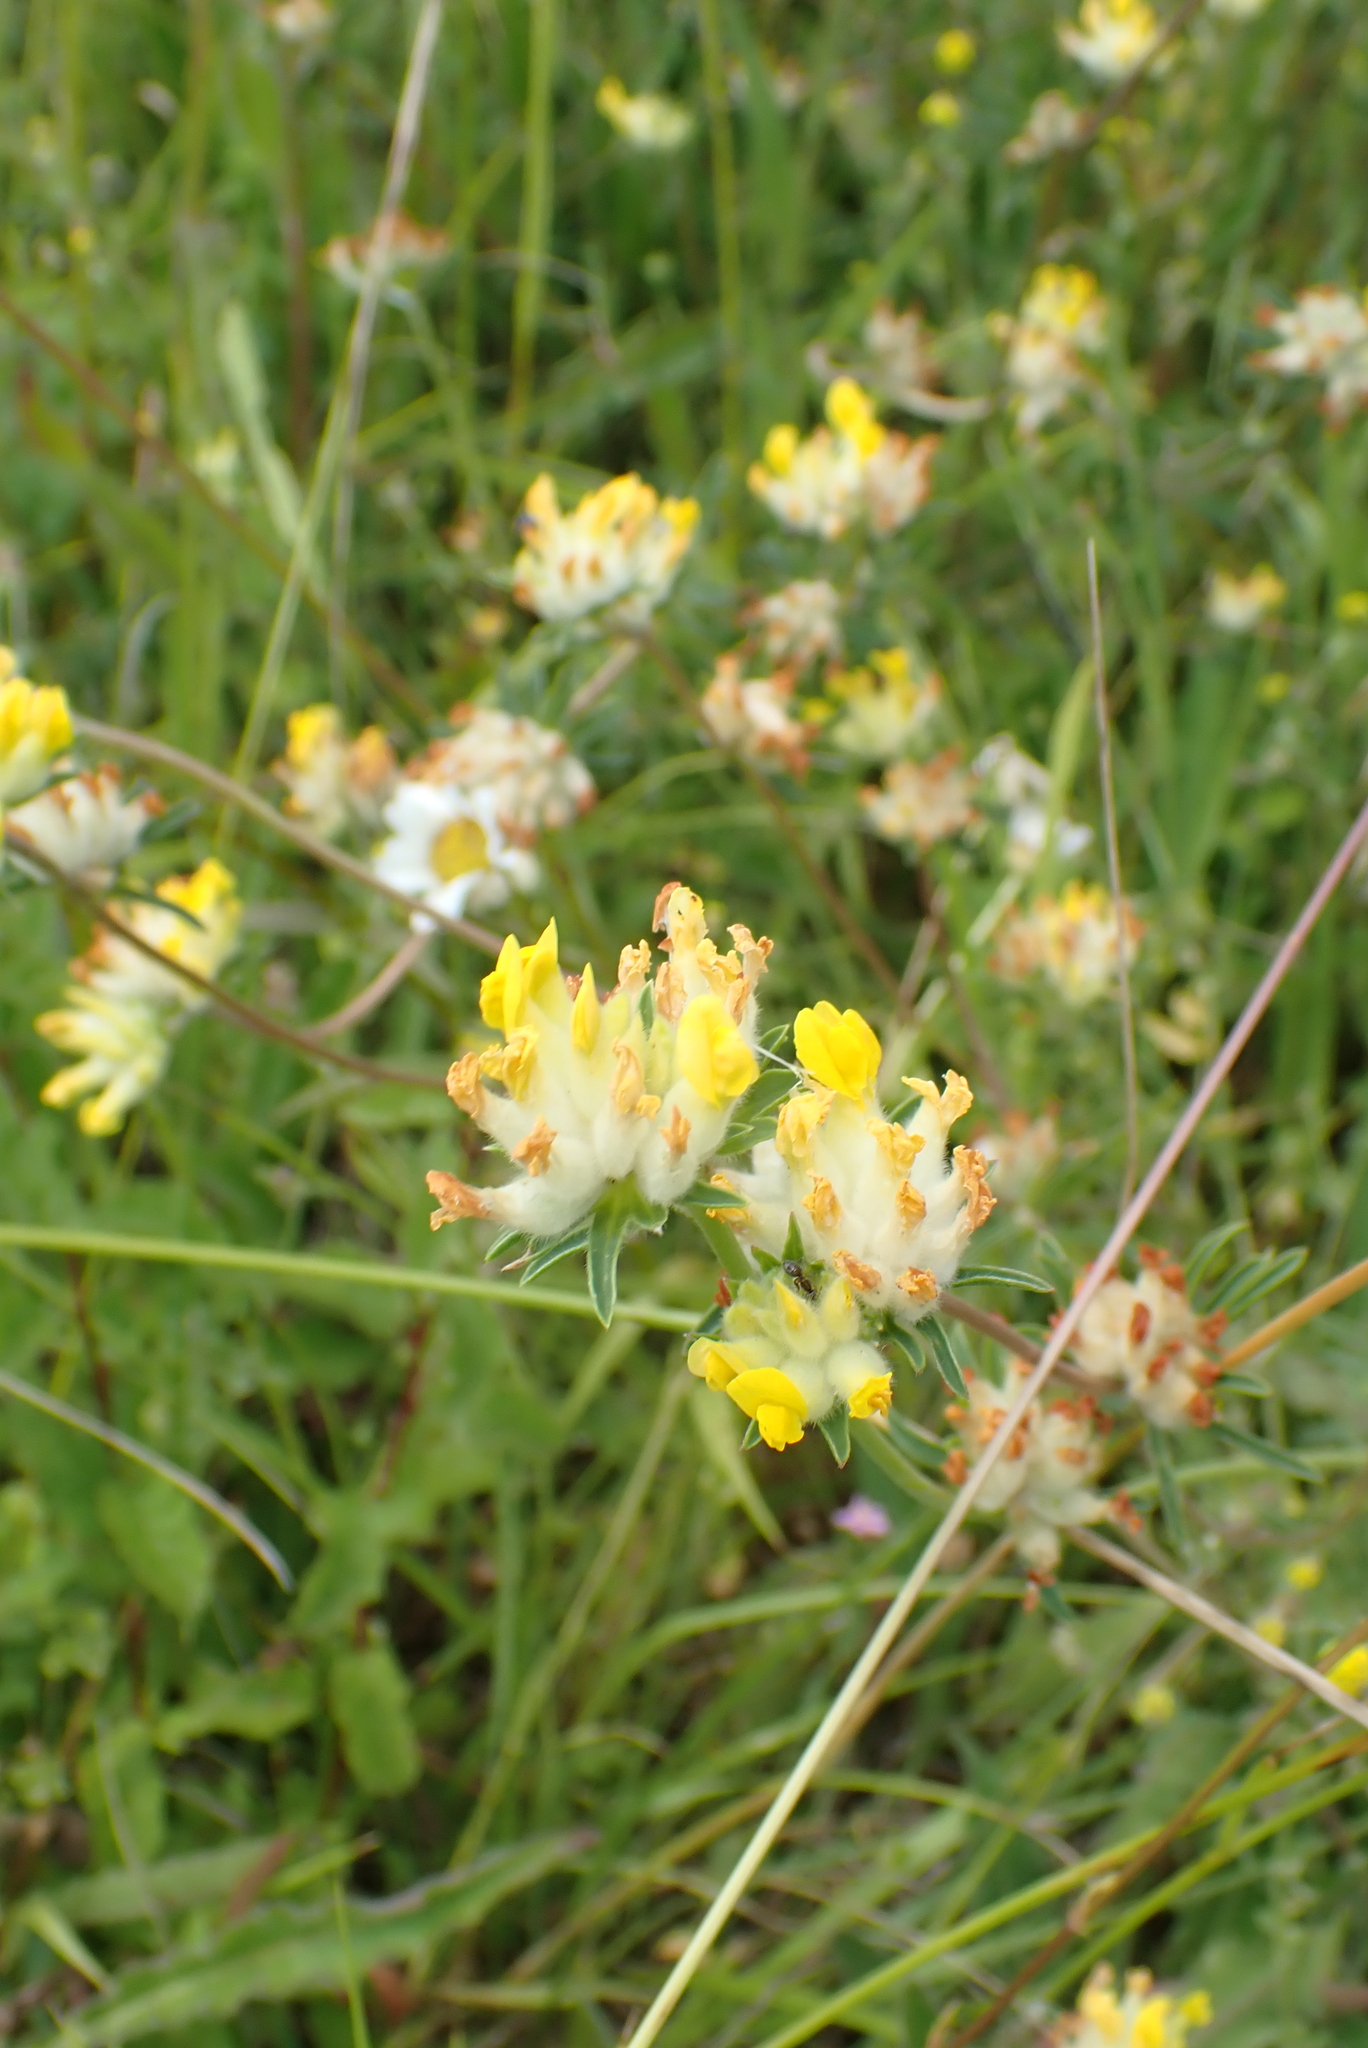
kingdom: Plantae
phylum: Tracheophyta
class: Magnoliopsida
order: Fabales
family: Fabaceae
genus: Anthyllis
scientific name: Anthyllis vulneraria
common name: Kidney vetch
